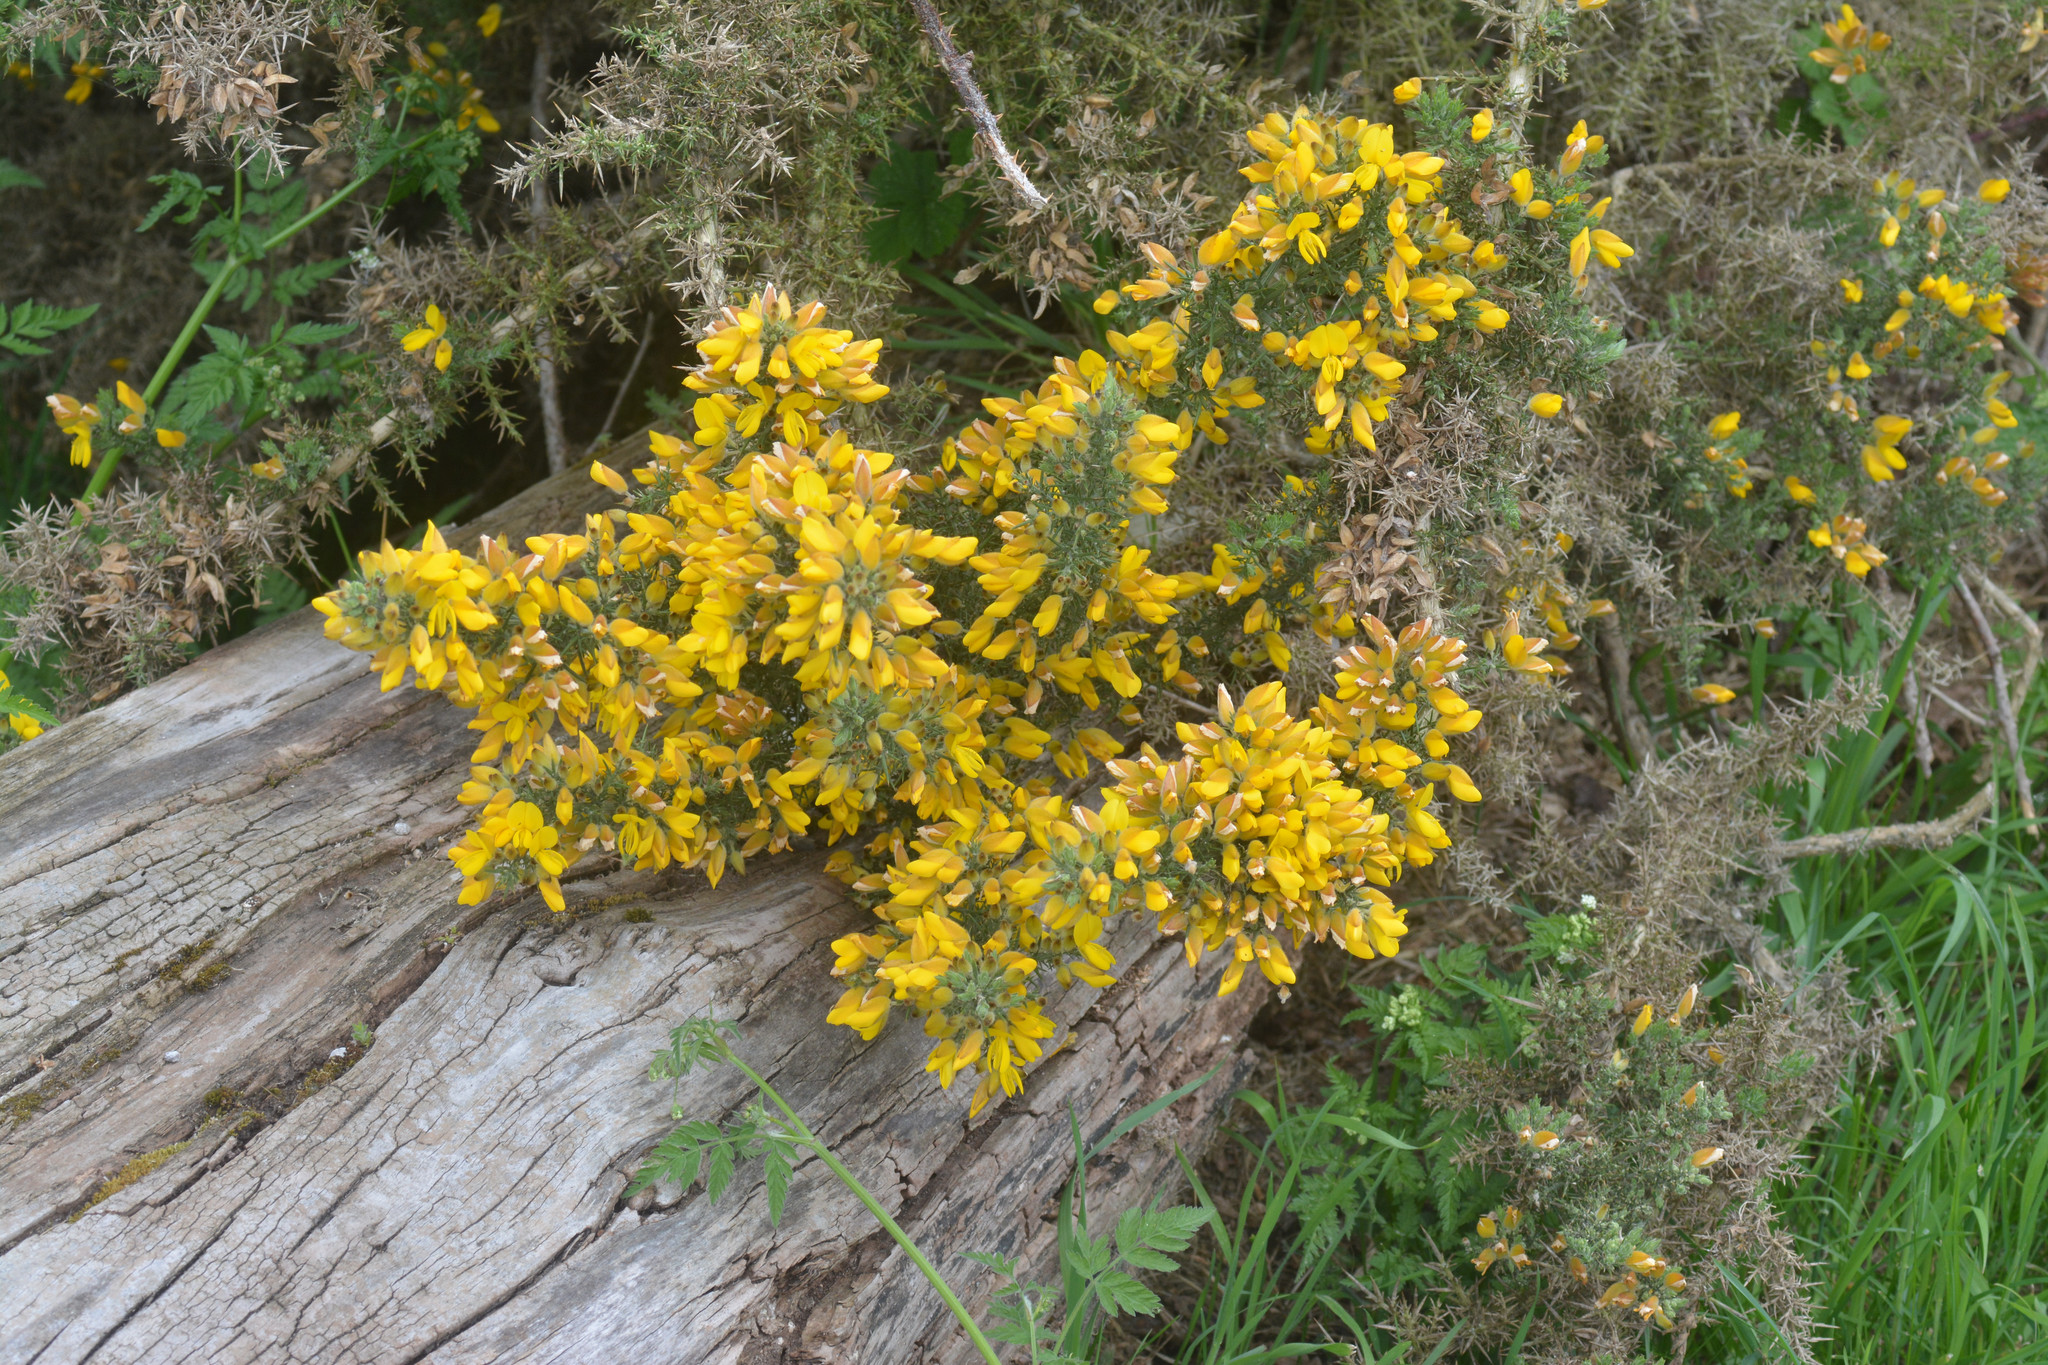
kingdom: Plantae
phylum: Tracheophyta
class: Magnoliopsida
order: Fabales
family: Fabaceae
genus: Ulex
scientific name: Ulex europaeus
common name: Common gorse
